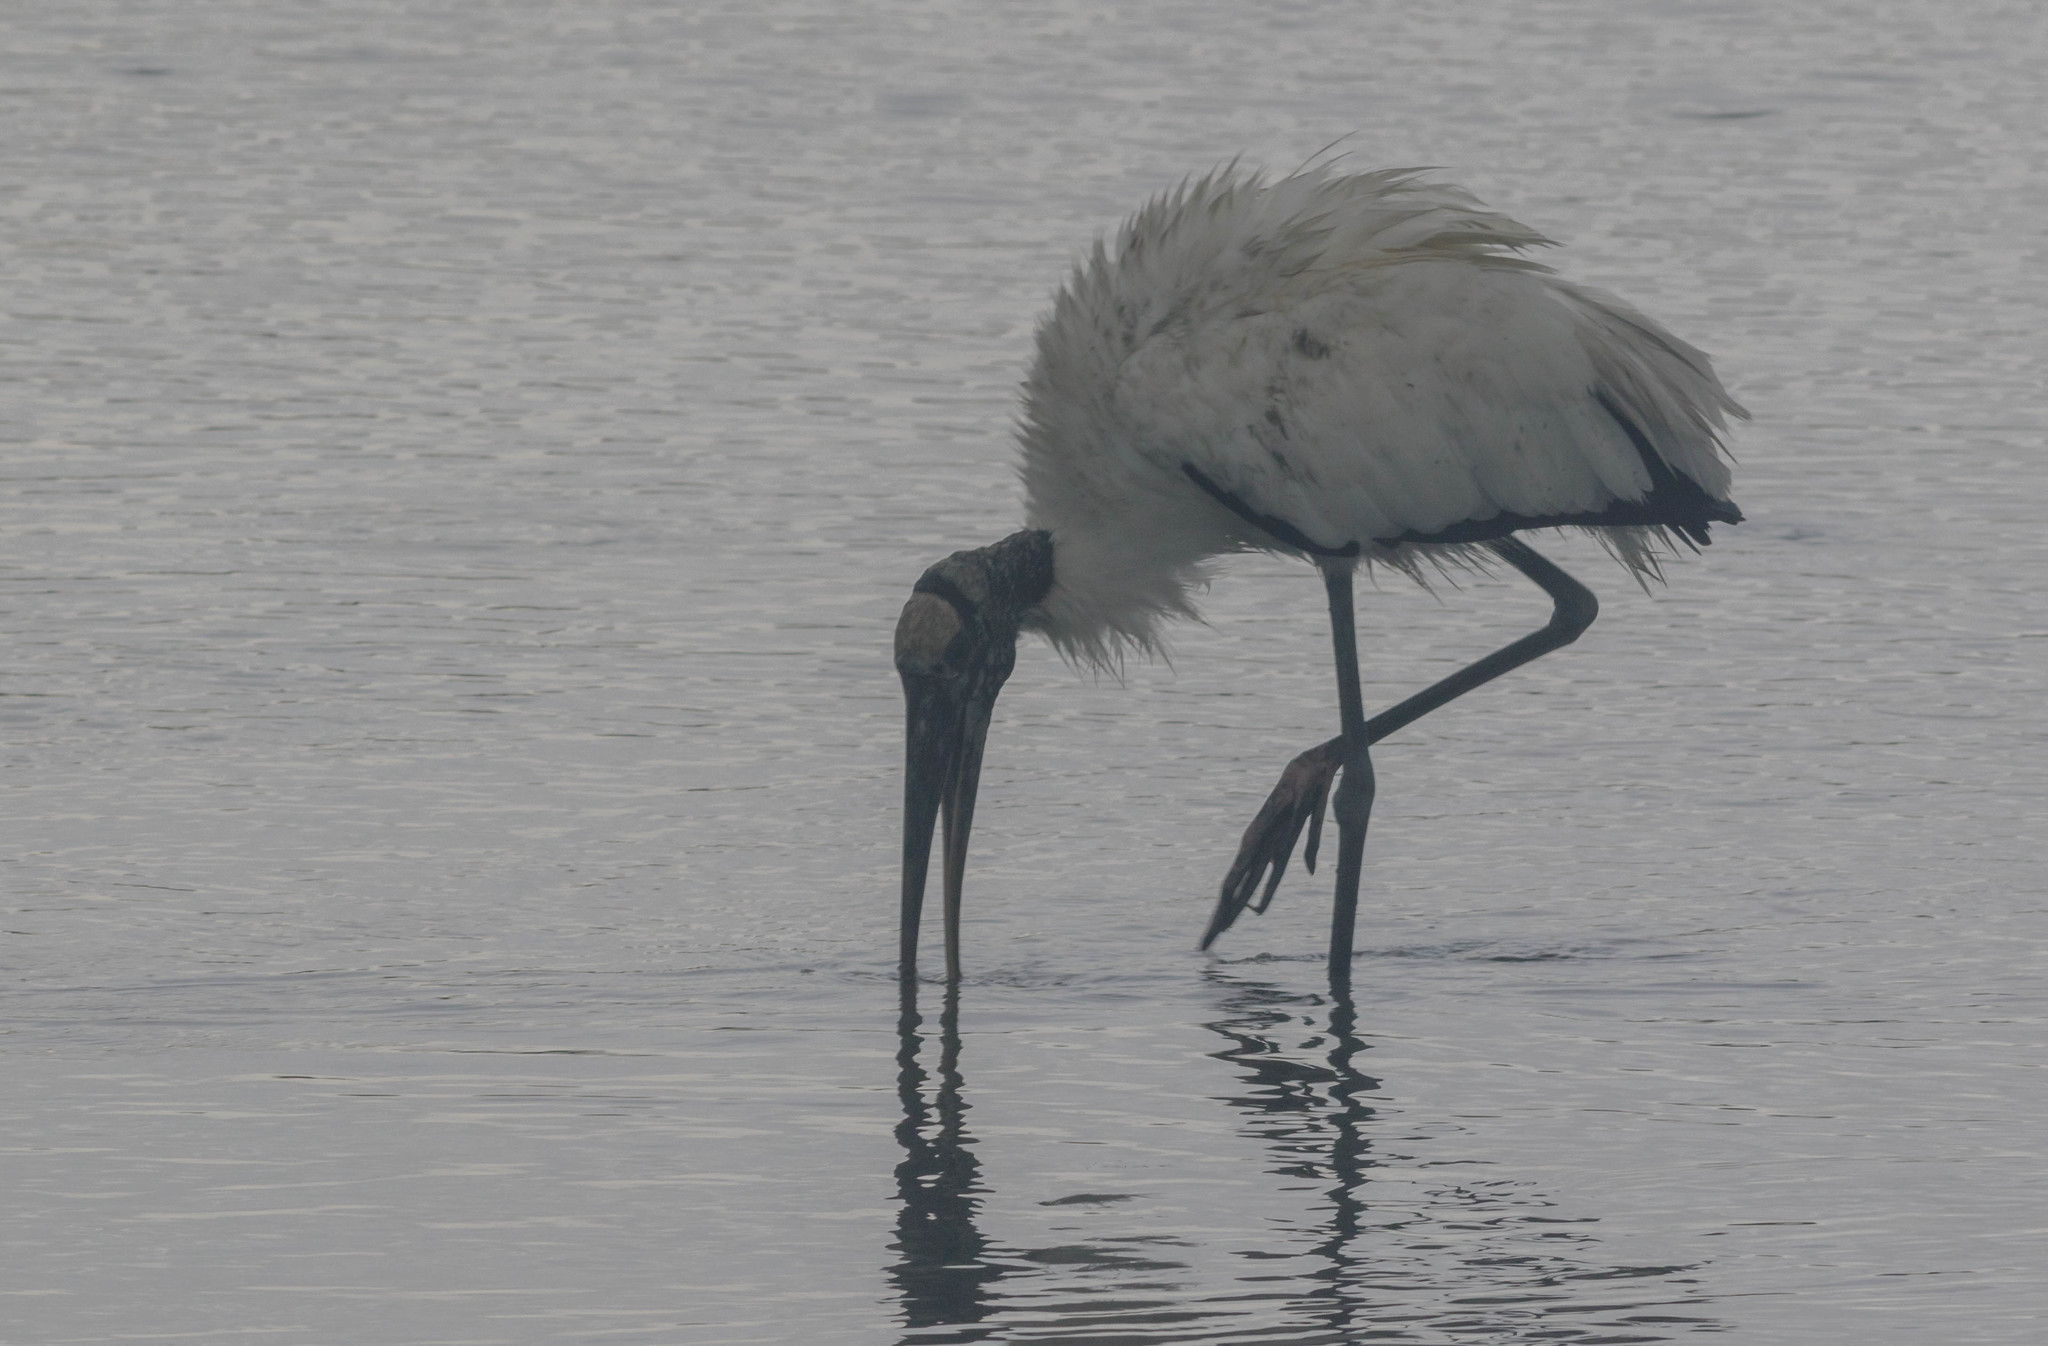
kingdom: Animalia
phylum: Chordata
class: Aves
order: Ciconiiformes
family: Ciconiidae
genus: Mycteria
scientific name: Mycteria americana
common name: Wood stork
